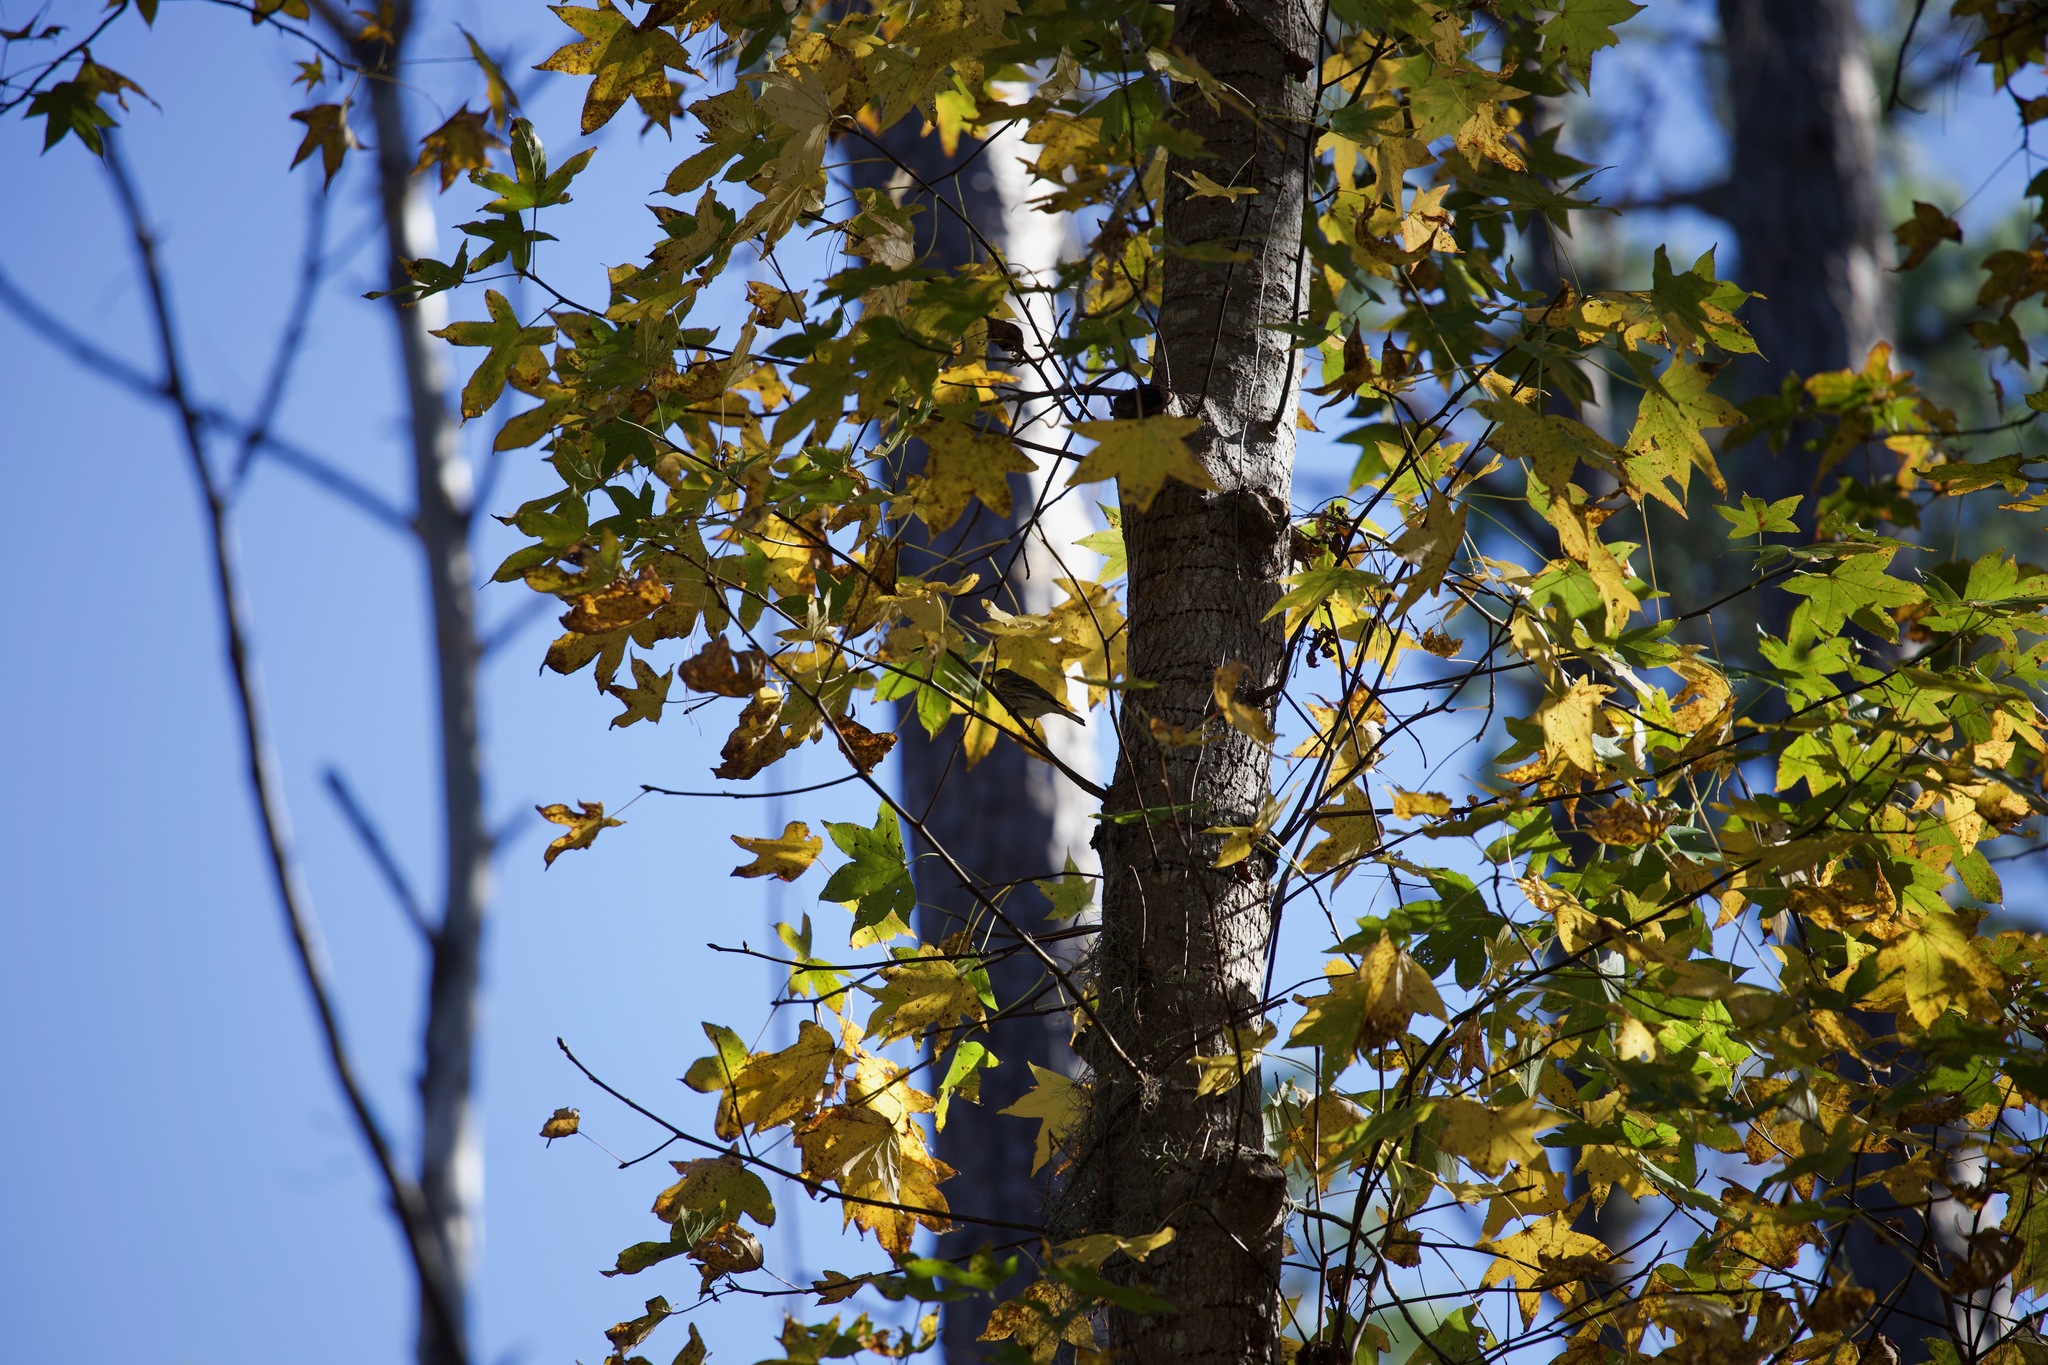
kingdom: Plantae
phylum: Tracheophyta
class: Magnoliopsida
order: Saxifragales
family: Altingiaceae
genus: Liquidambar
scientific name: Liquidambar styraciflua
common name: Sweet gum
